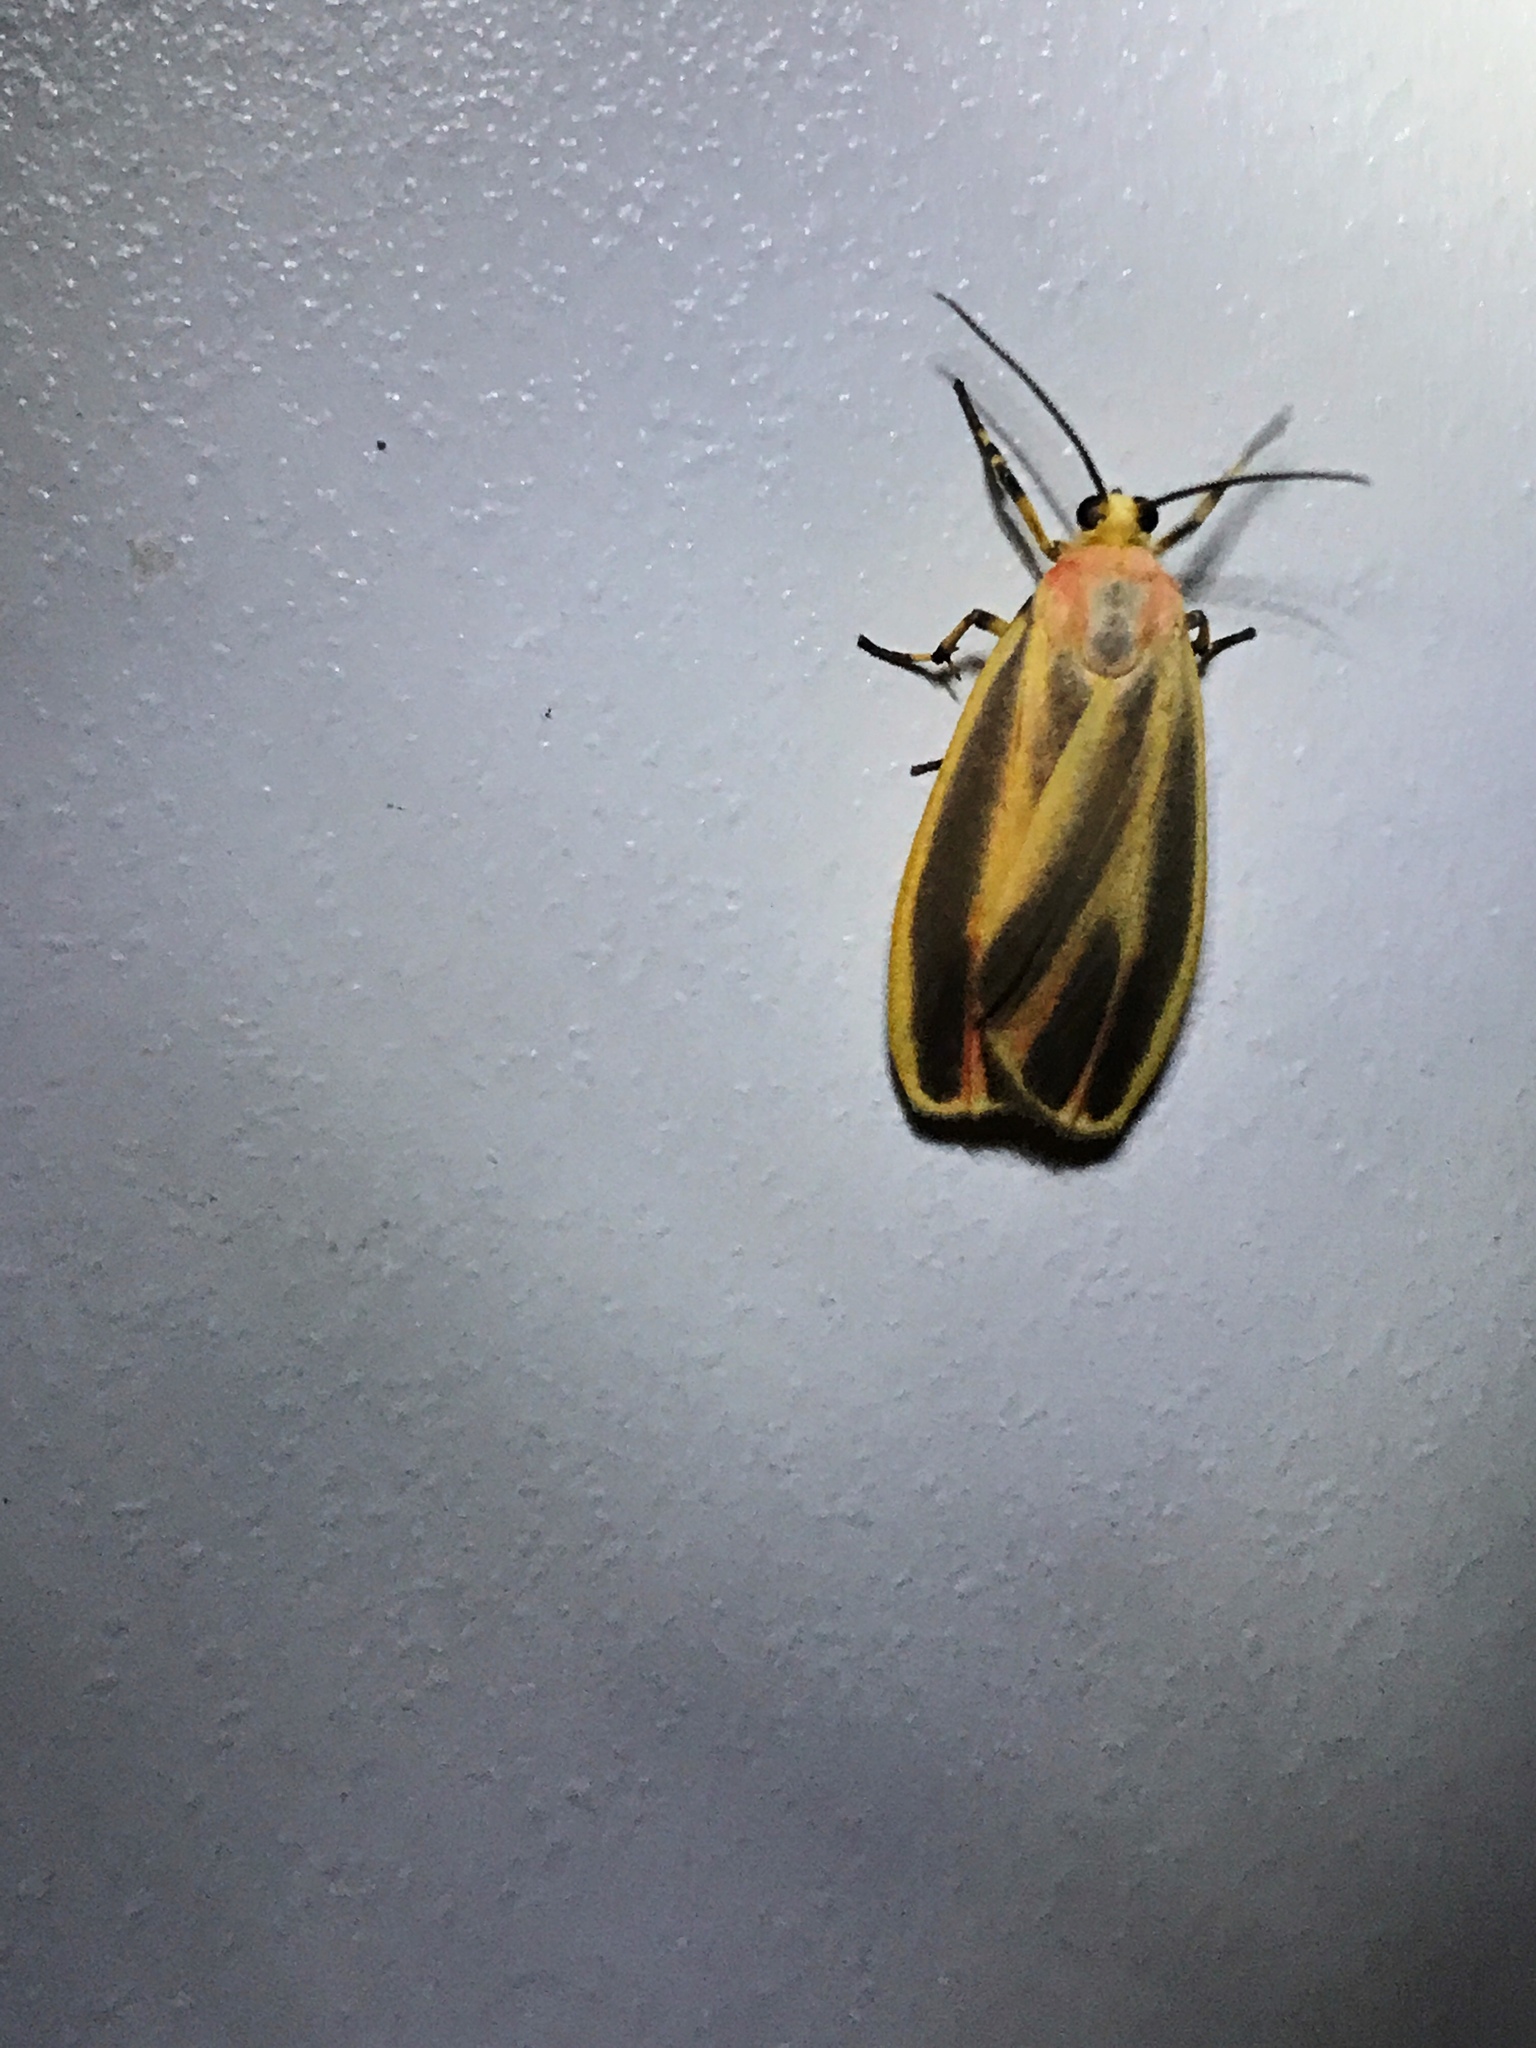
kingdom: Animalia
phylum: Arthropoda
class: Insecta
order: Lepidoptera
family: Erebidae
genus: Hypoprepia
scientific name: Hypoprepia fucosa
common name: Painted lichen moth
